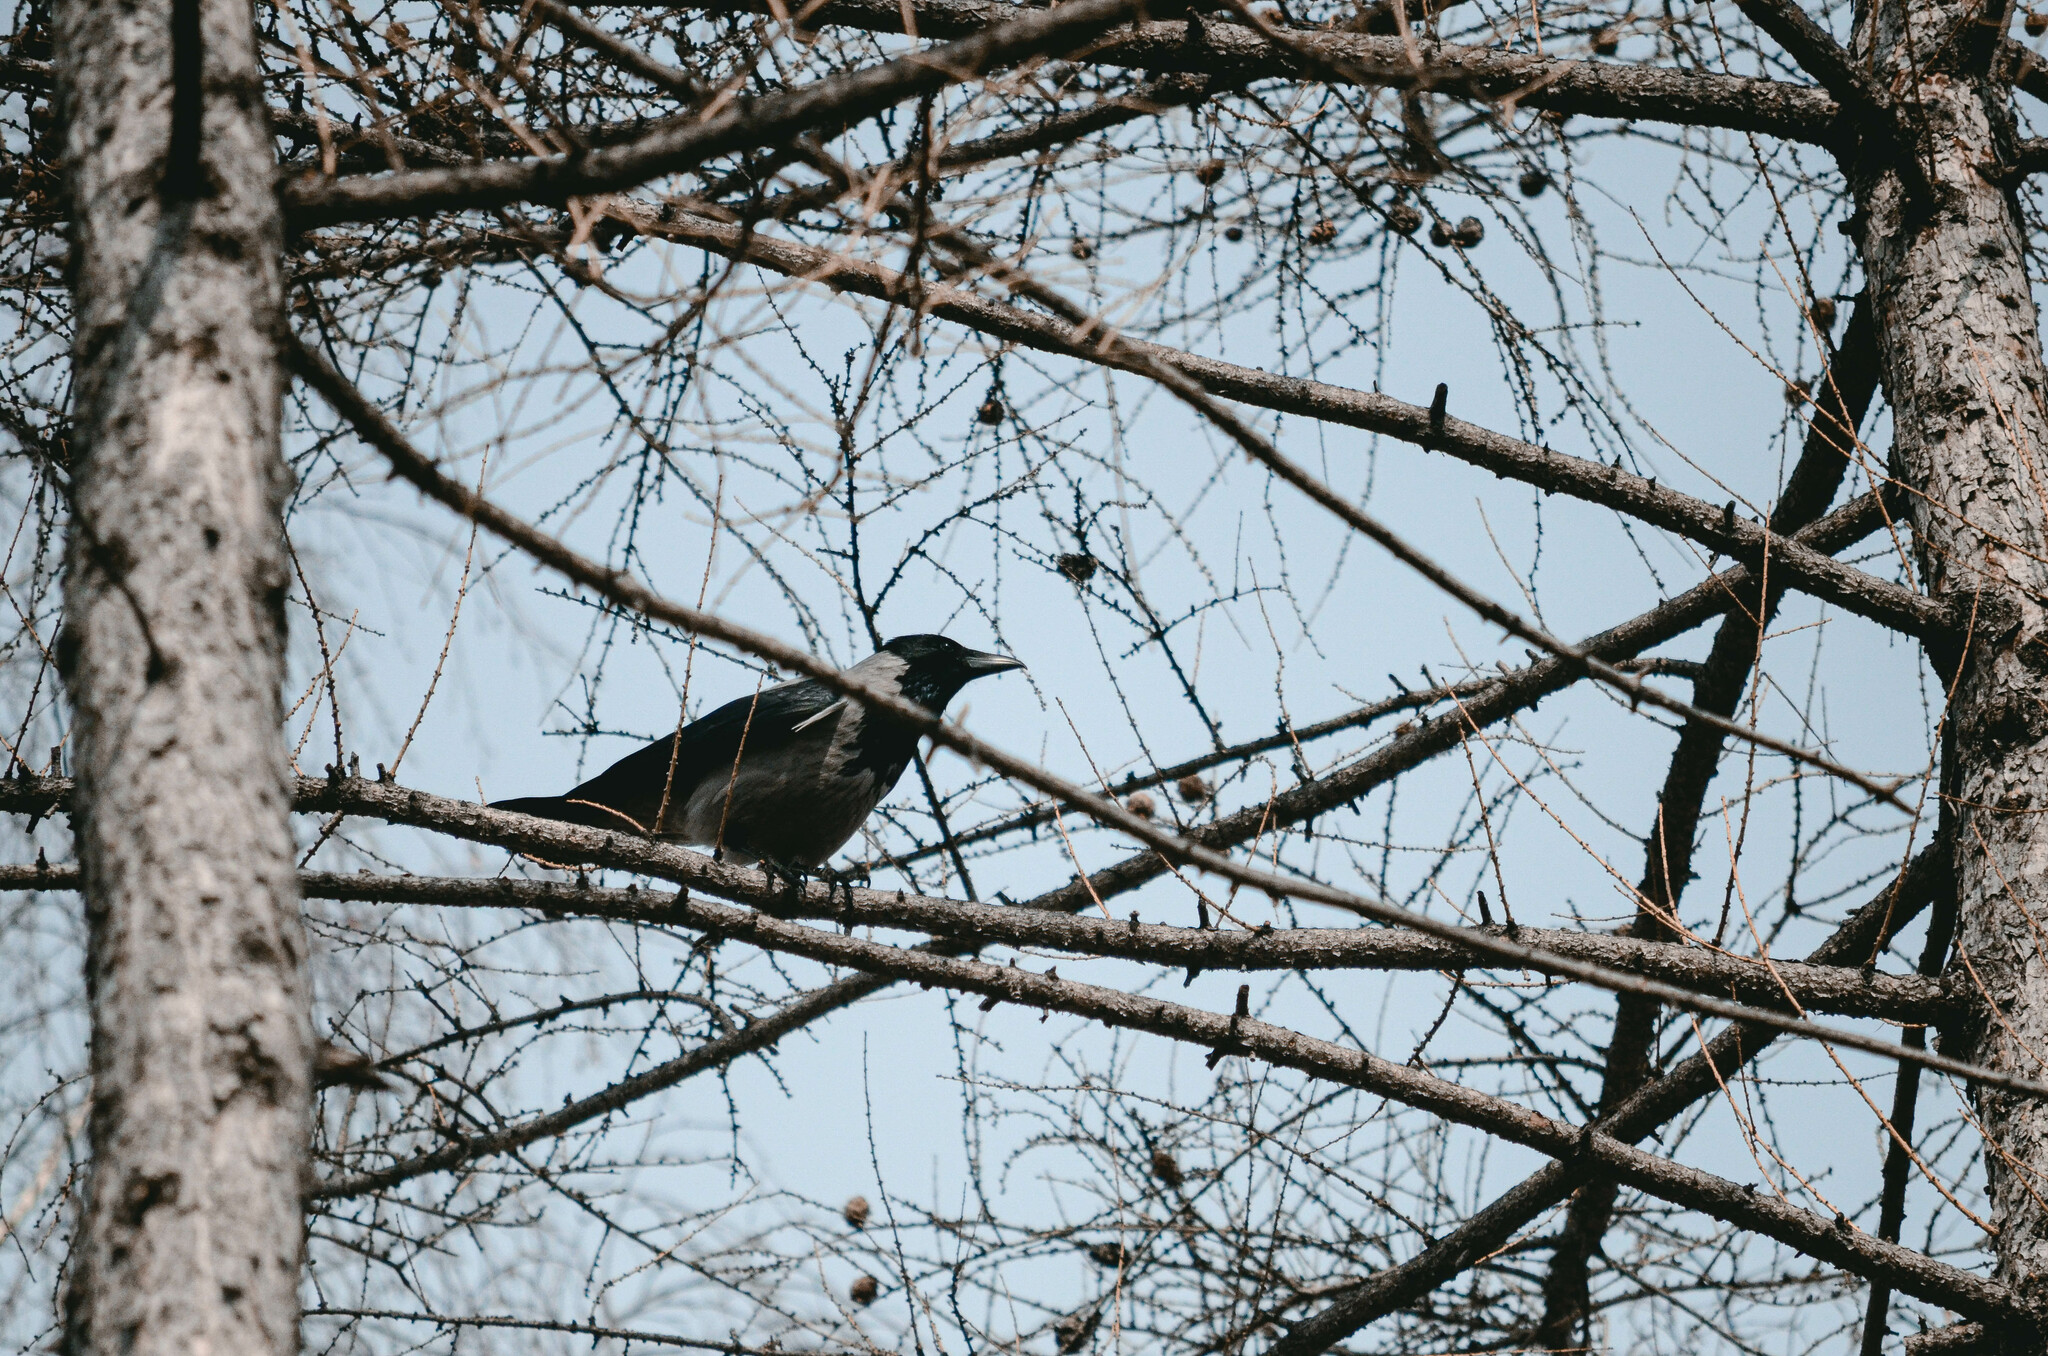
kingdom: Animalia
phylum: Chordata
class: Aves
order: Passeriformes
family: Corvidae
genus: Corvus
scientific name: Corvus cornix
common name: Hooded crow
